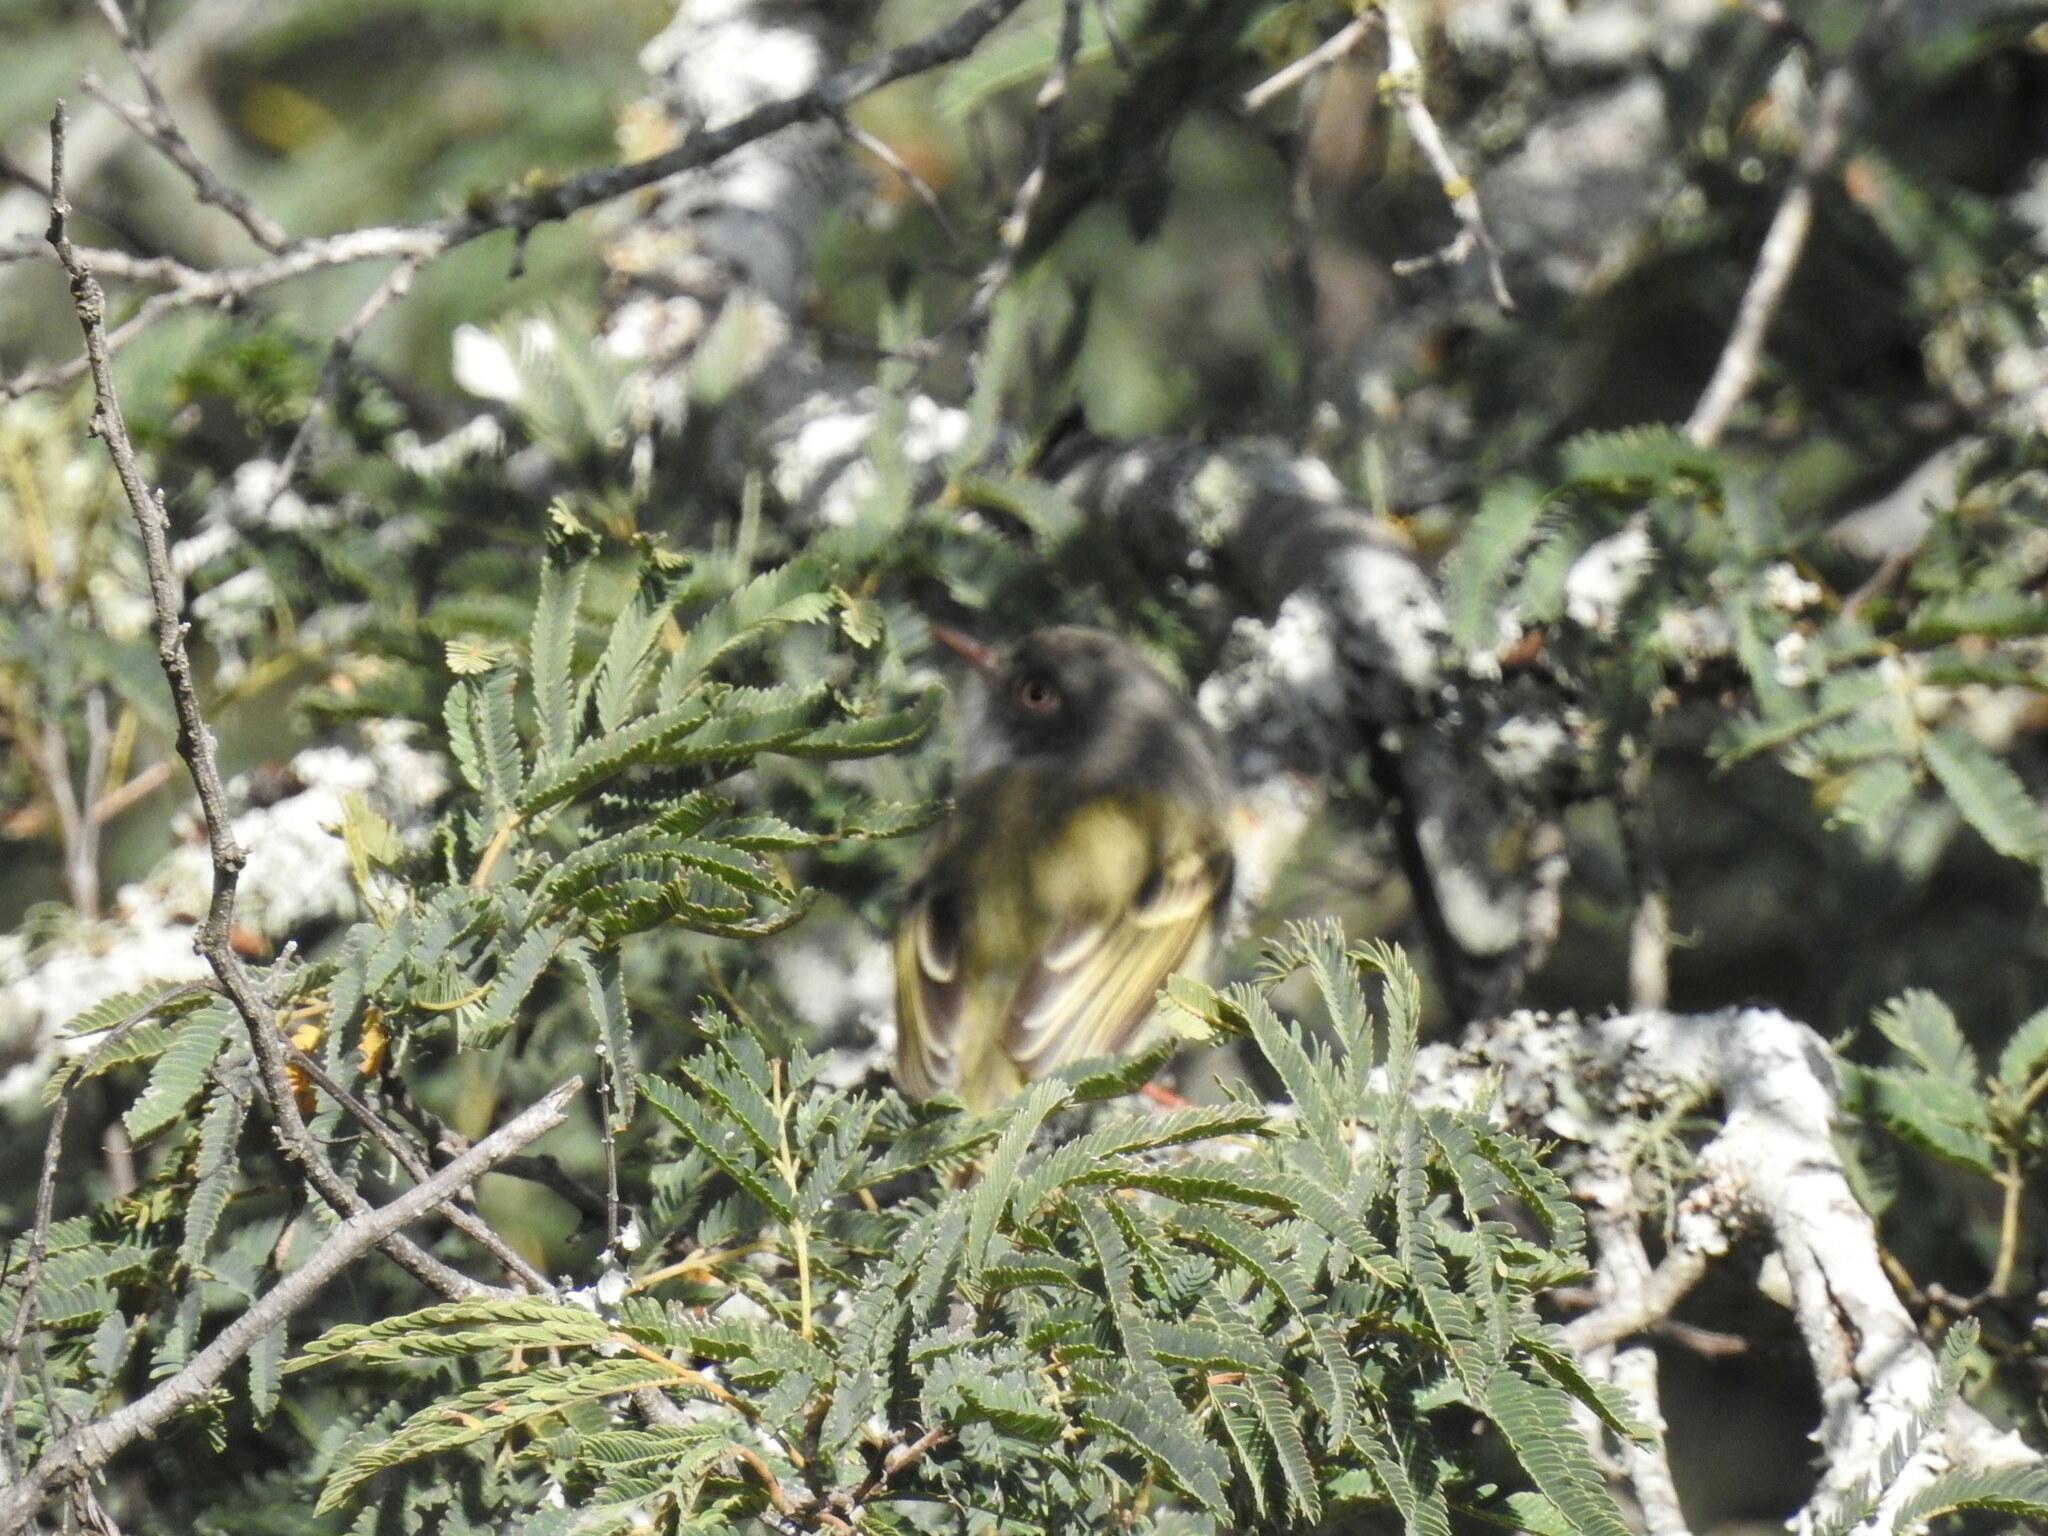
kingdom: Animalia
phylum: Chordata
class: Aves
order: Passeriformes
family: Tyrannidae
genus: Hemitriccus
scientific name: Hemitriccus margaritaceiventer
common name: Pearly-vented tody-tyrant
